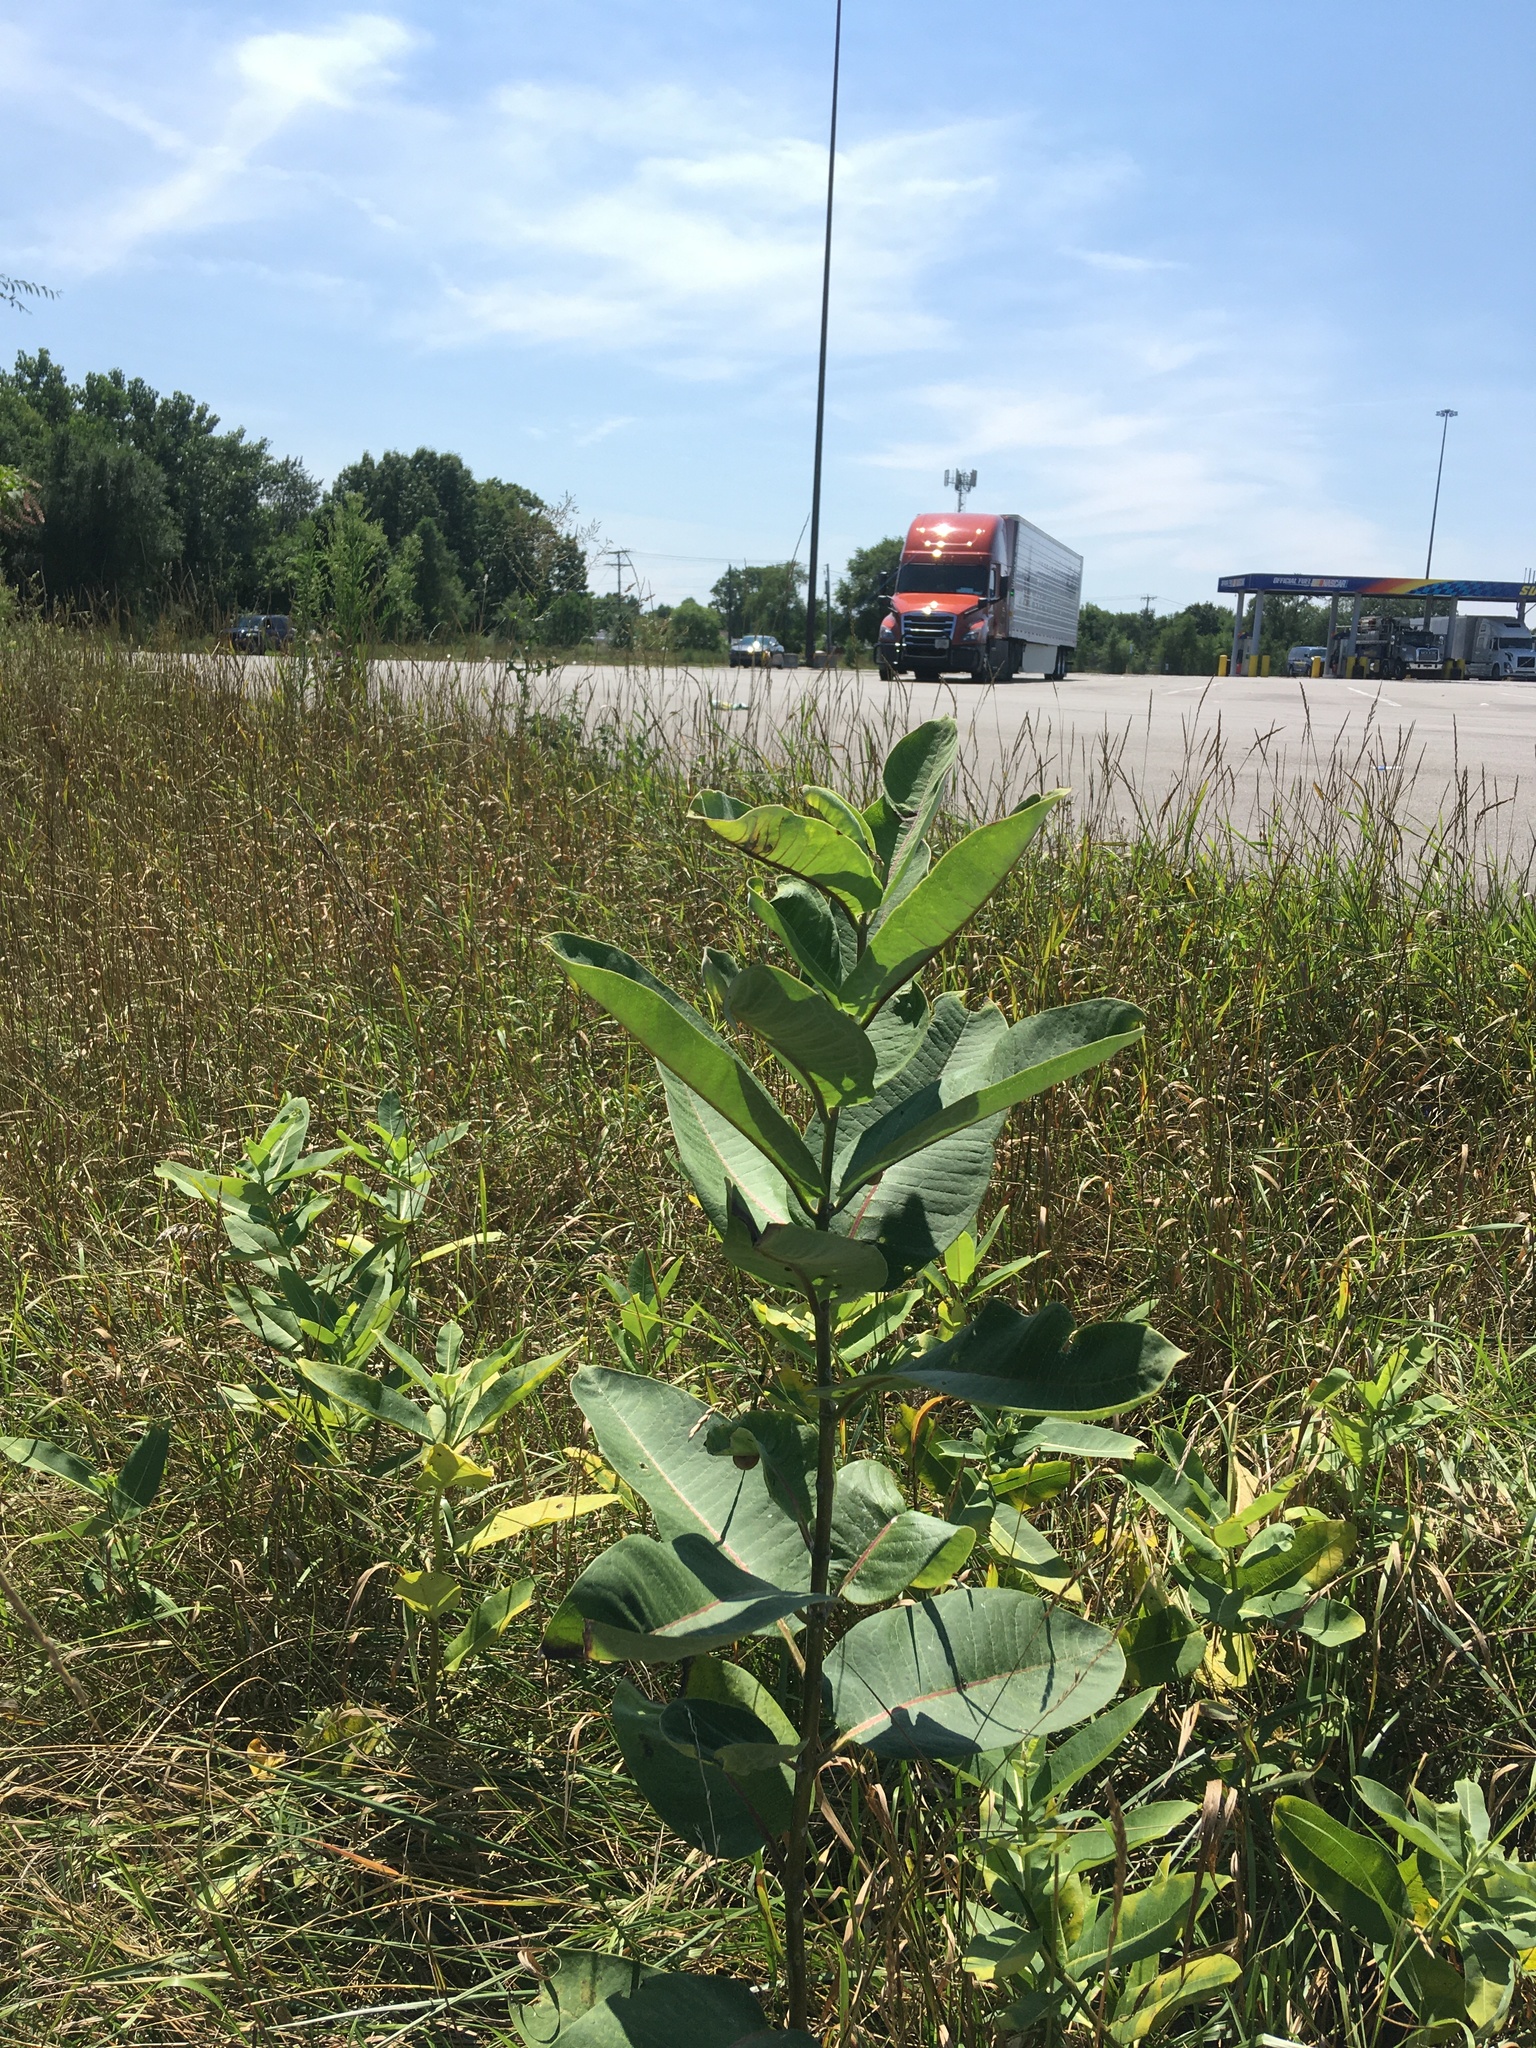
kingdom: Plantae
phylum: Tracheophyta
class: Magnoliopsida
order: Gentianales
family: Apocynaceae
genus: Asclepias
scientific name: Asclepias syriaca
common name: Common milkweed
